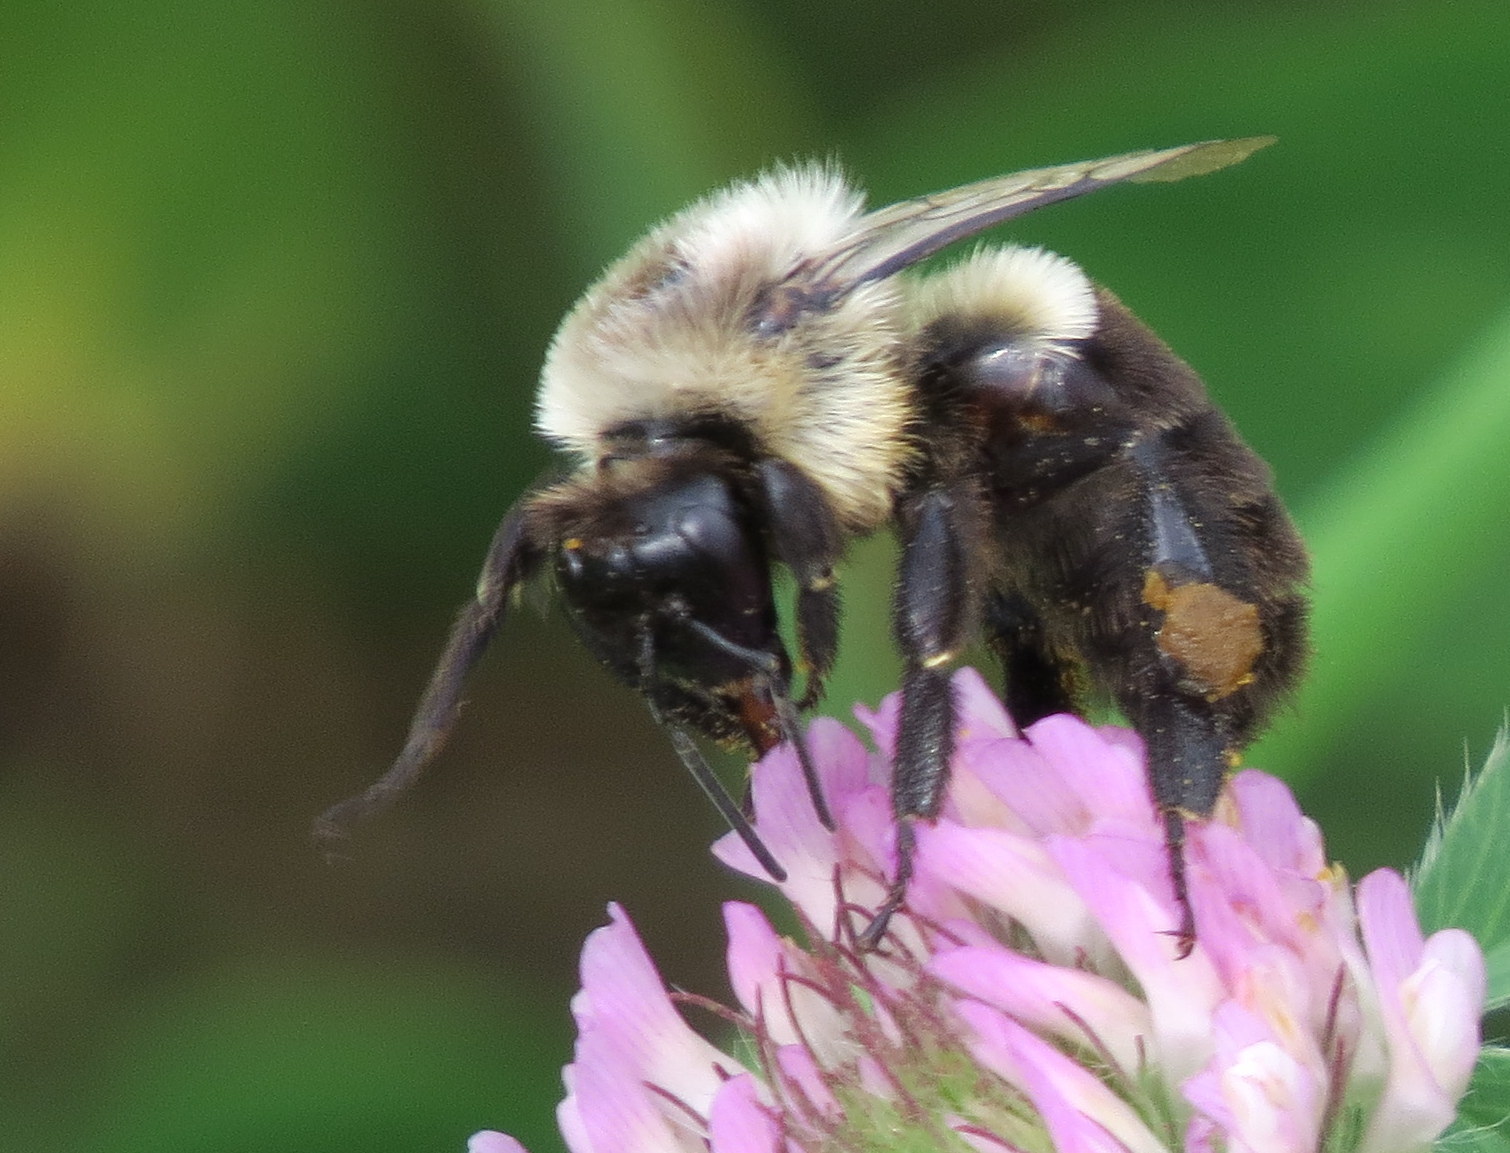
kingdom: Animalia
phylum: Arthropoda
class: Insecta
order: Hymenoptera
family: Apidae
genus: Bombus
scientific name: Bombus impatiens
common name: Common eastern bumble bee
